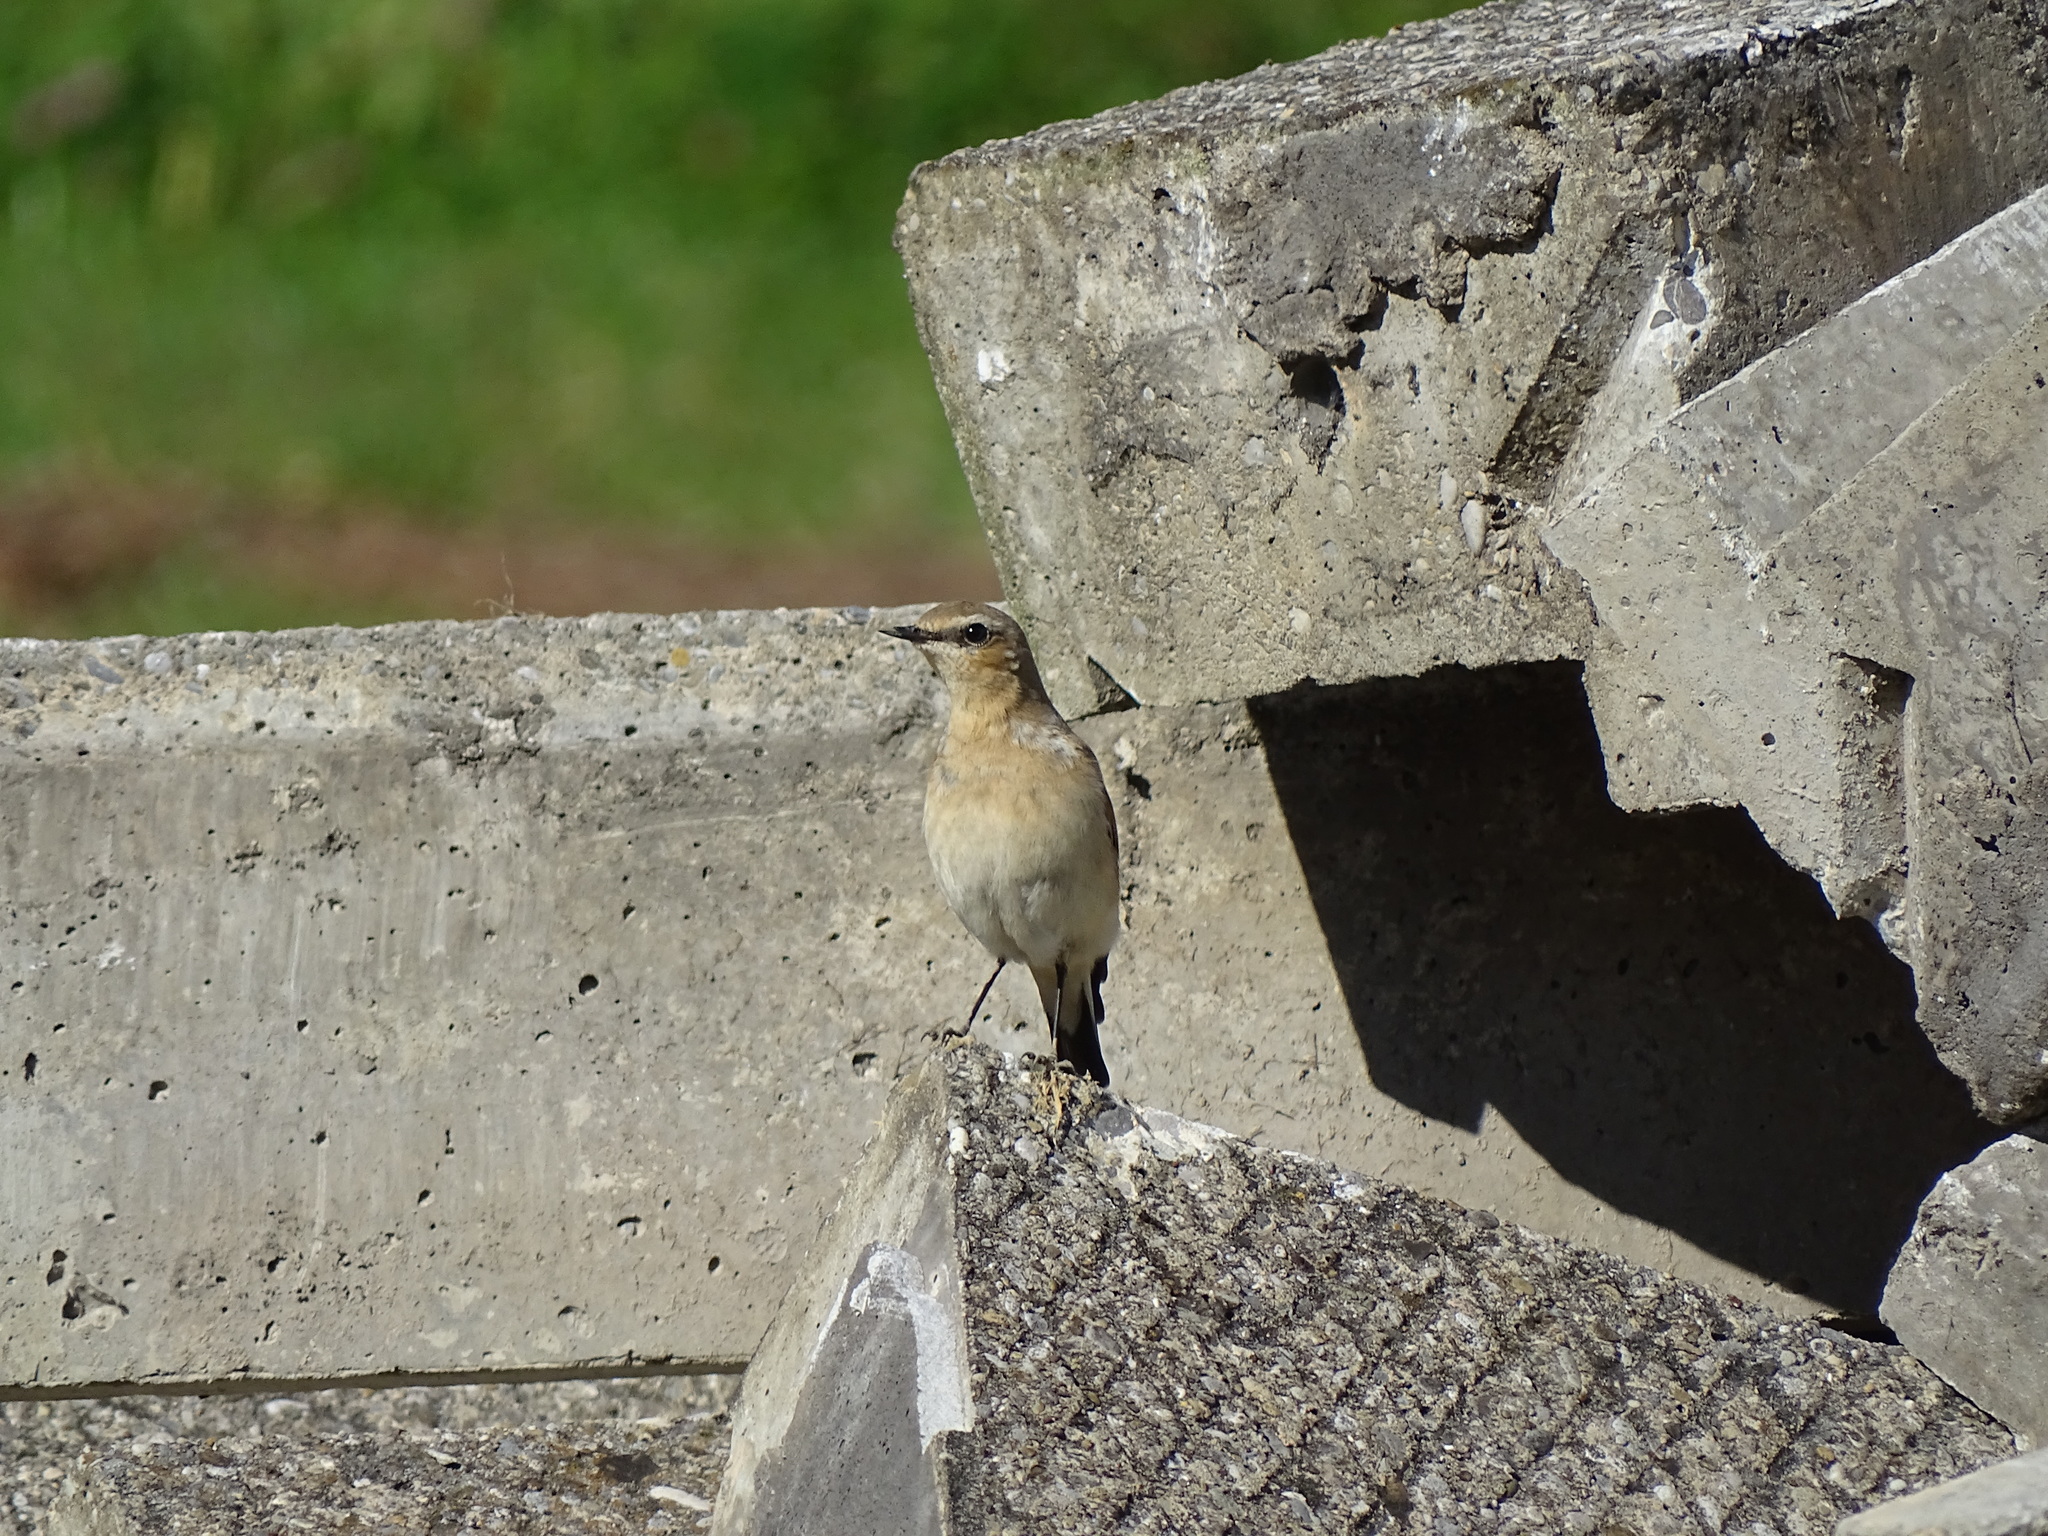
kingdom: Animalia
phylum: Chordata
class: Aves
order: Passeriformes
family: Muscicapidae
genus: Oenanthe
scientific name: Oenanthe oenanthe
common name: Northern wheatear
